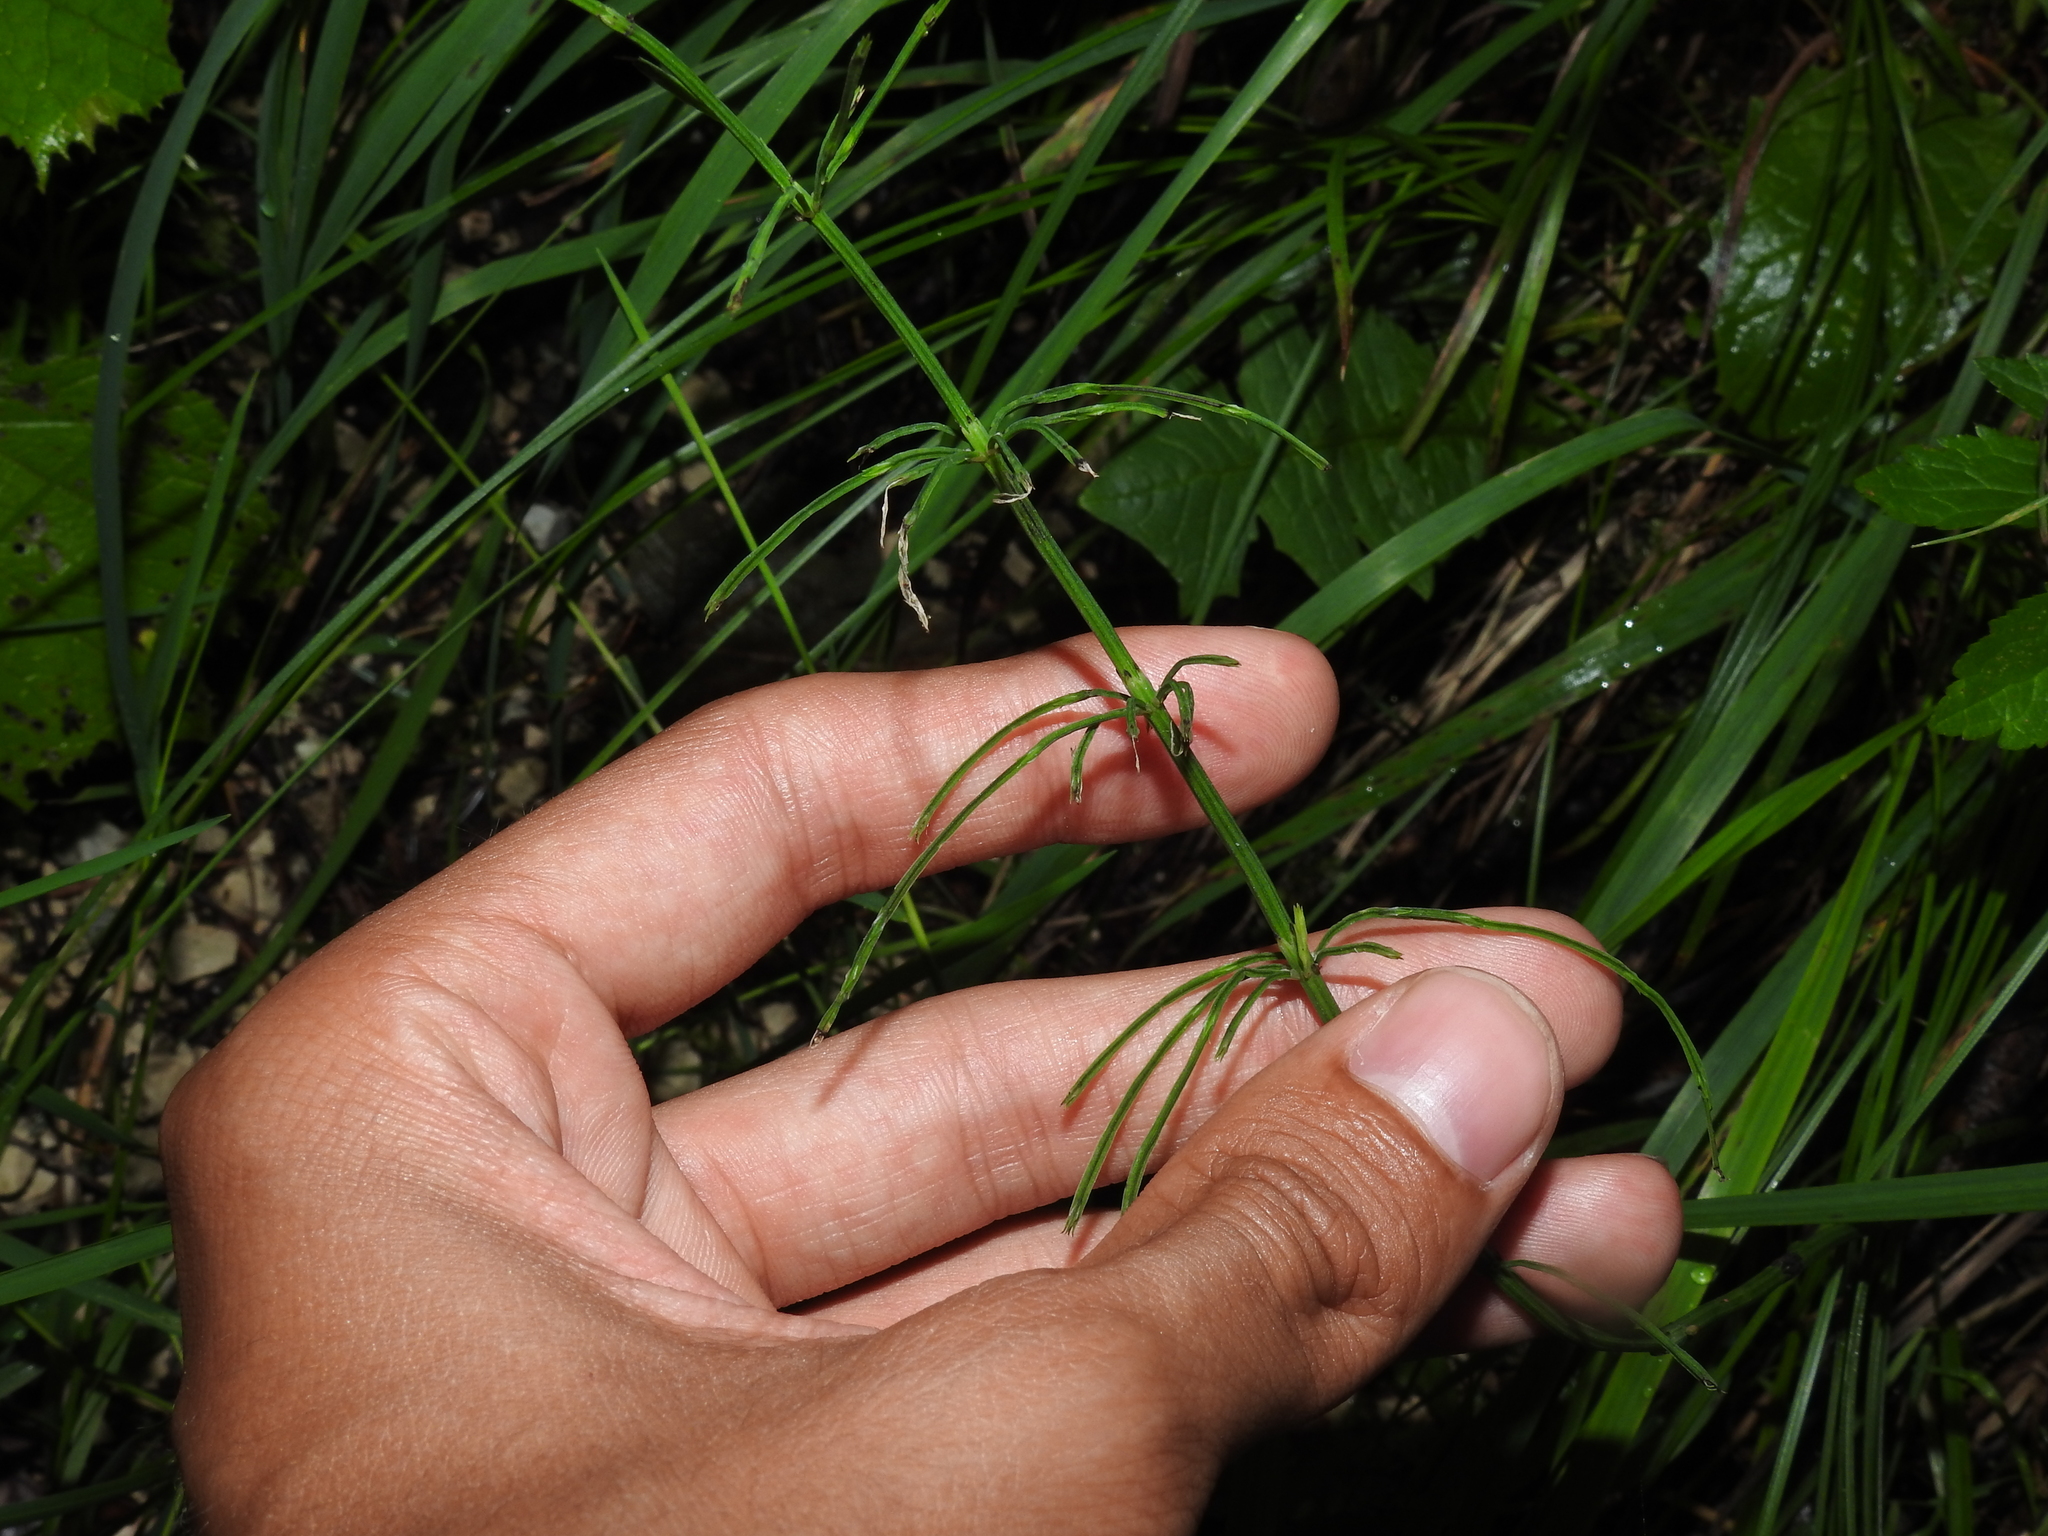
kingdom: Plantae
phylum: Tracheophyta
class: Polypodiopsida
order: Equisetales
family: Equisetaceae
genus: Equisetum
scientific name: Equisetum arvense
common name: Field horsetail
